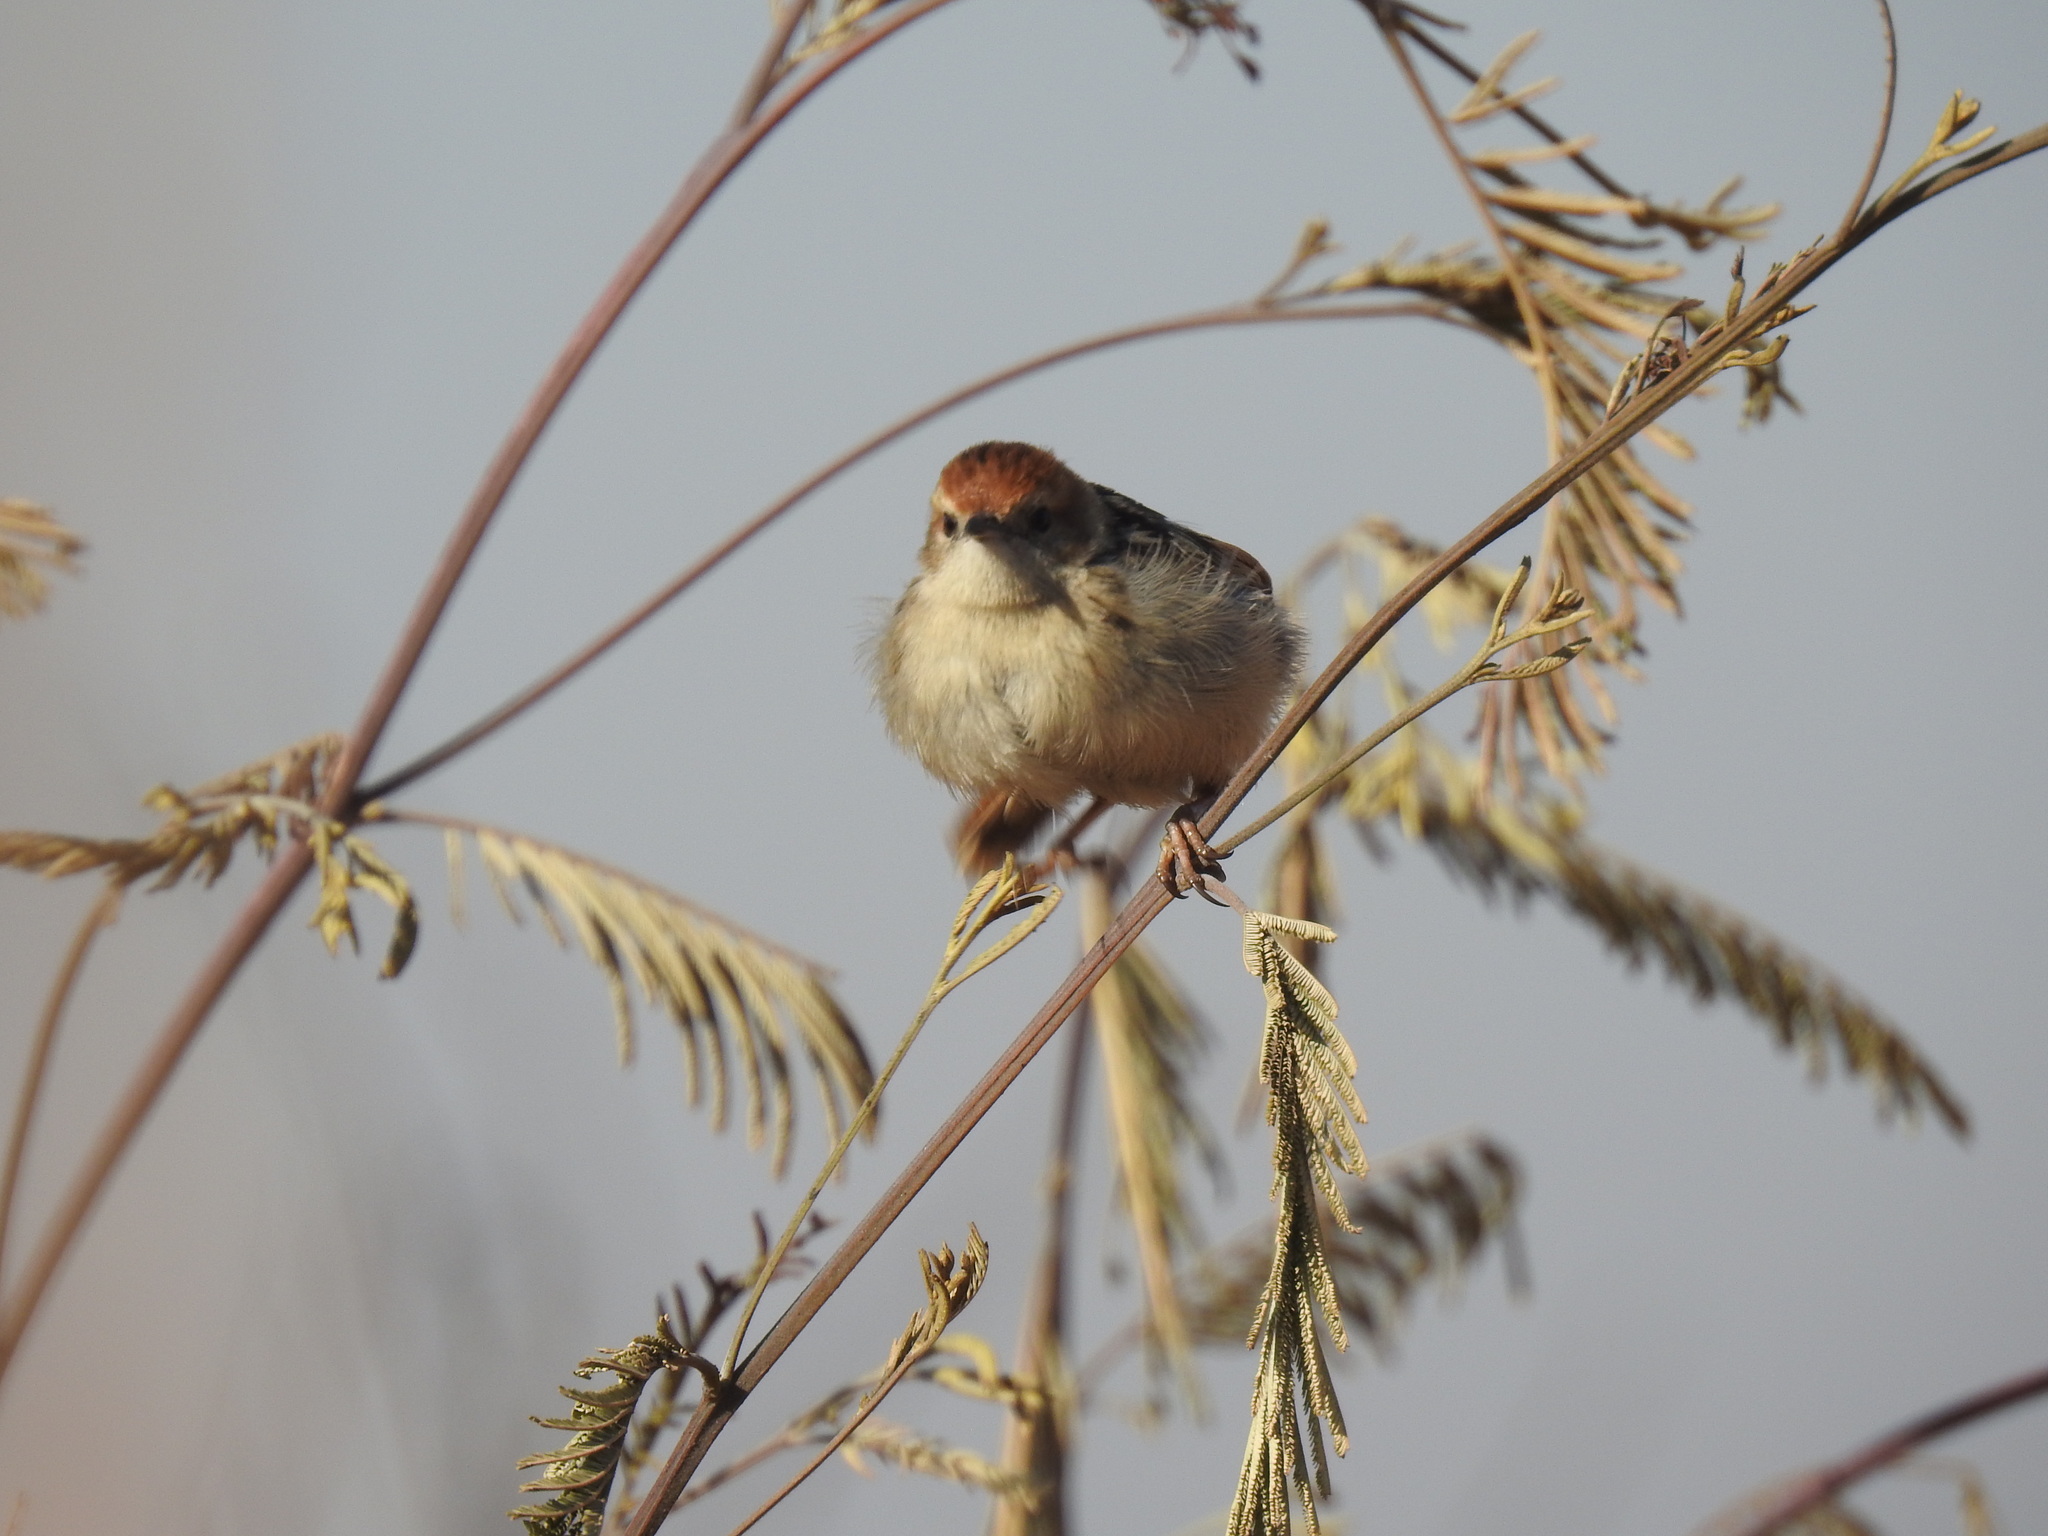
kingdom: Animalia
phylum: Chordata
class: Aves
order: Passeriformes
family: Cisticolidae
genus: Cisticola
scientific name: Cisticola tinniens
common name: Levaillant's cisticola
